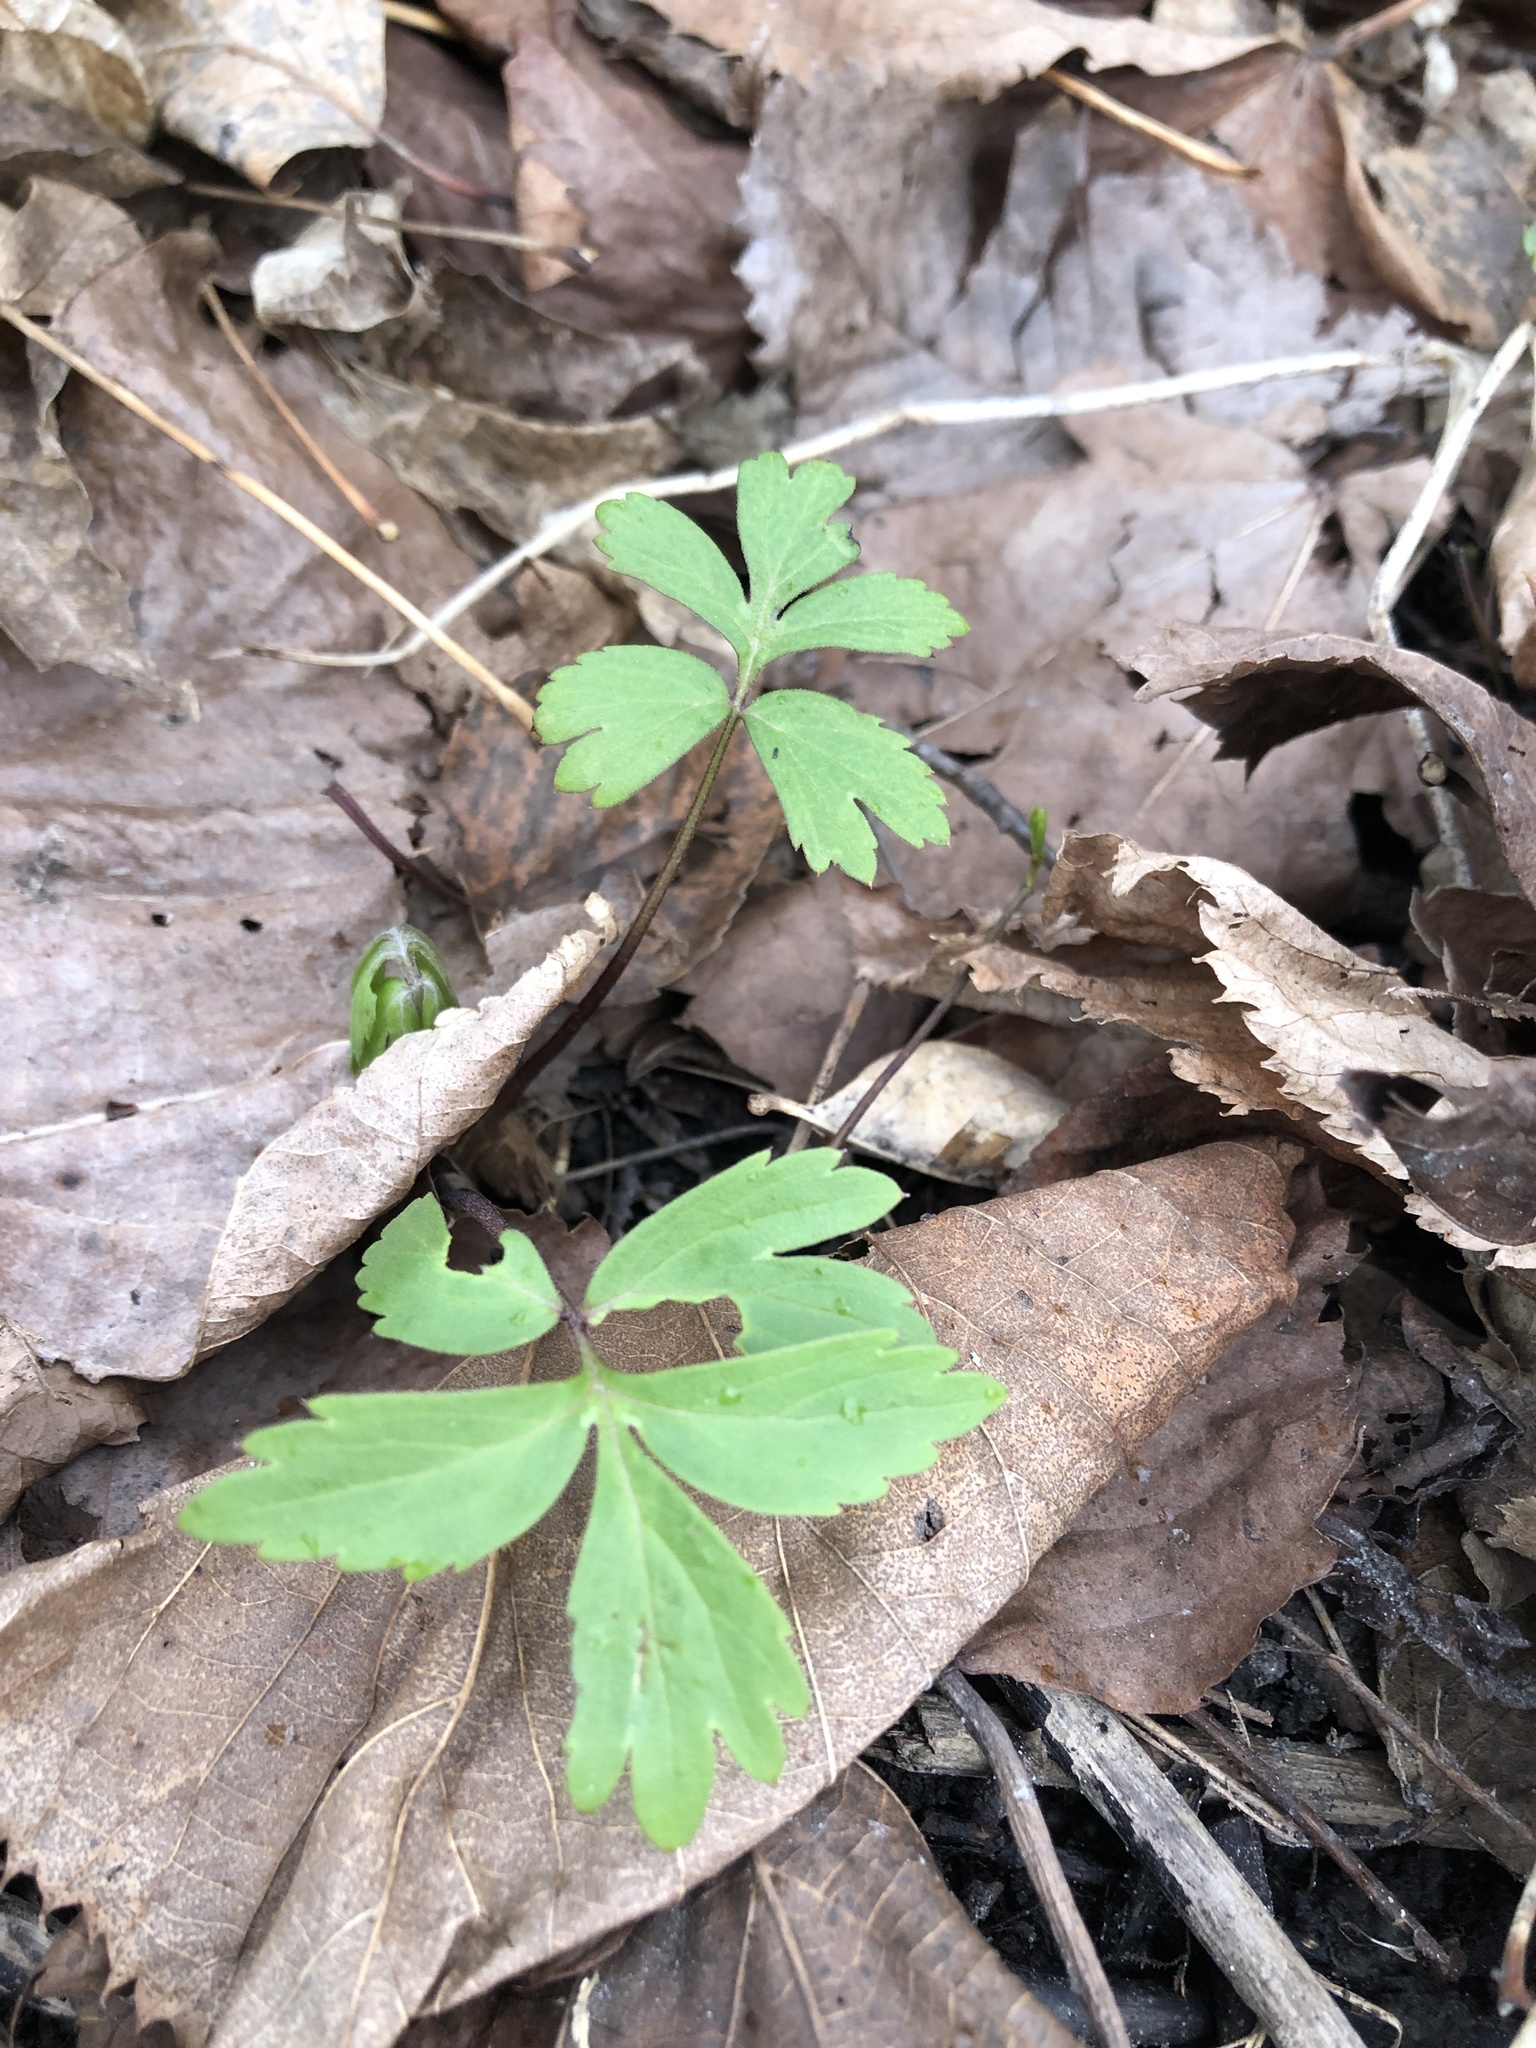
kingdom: Plantae
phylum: Tracheophyta
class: Magnoliopsida
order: Boraginales
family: Hydrophyllaceae
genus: Hydrophyllum
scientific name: Hydrophyllum virginianum
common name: Virginia waterleaf
